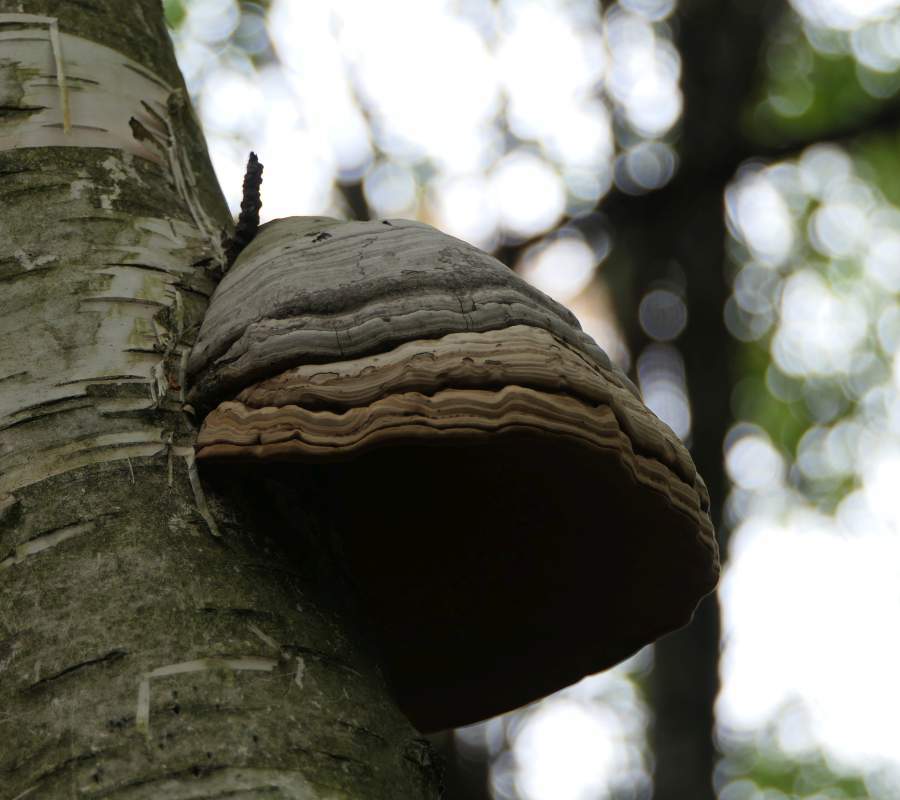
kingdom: Fungi
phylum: Basidiomycota
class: Agaricomycetes
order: Polyporales
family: Polyporaceae
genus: Fomes
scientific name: Fomes fomentarius
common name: Hoof fungus
